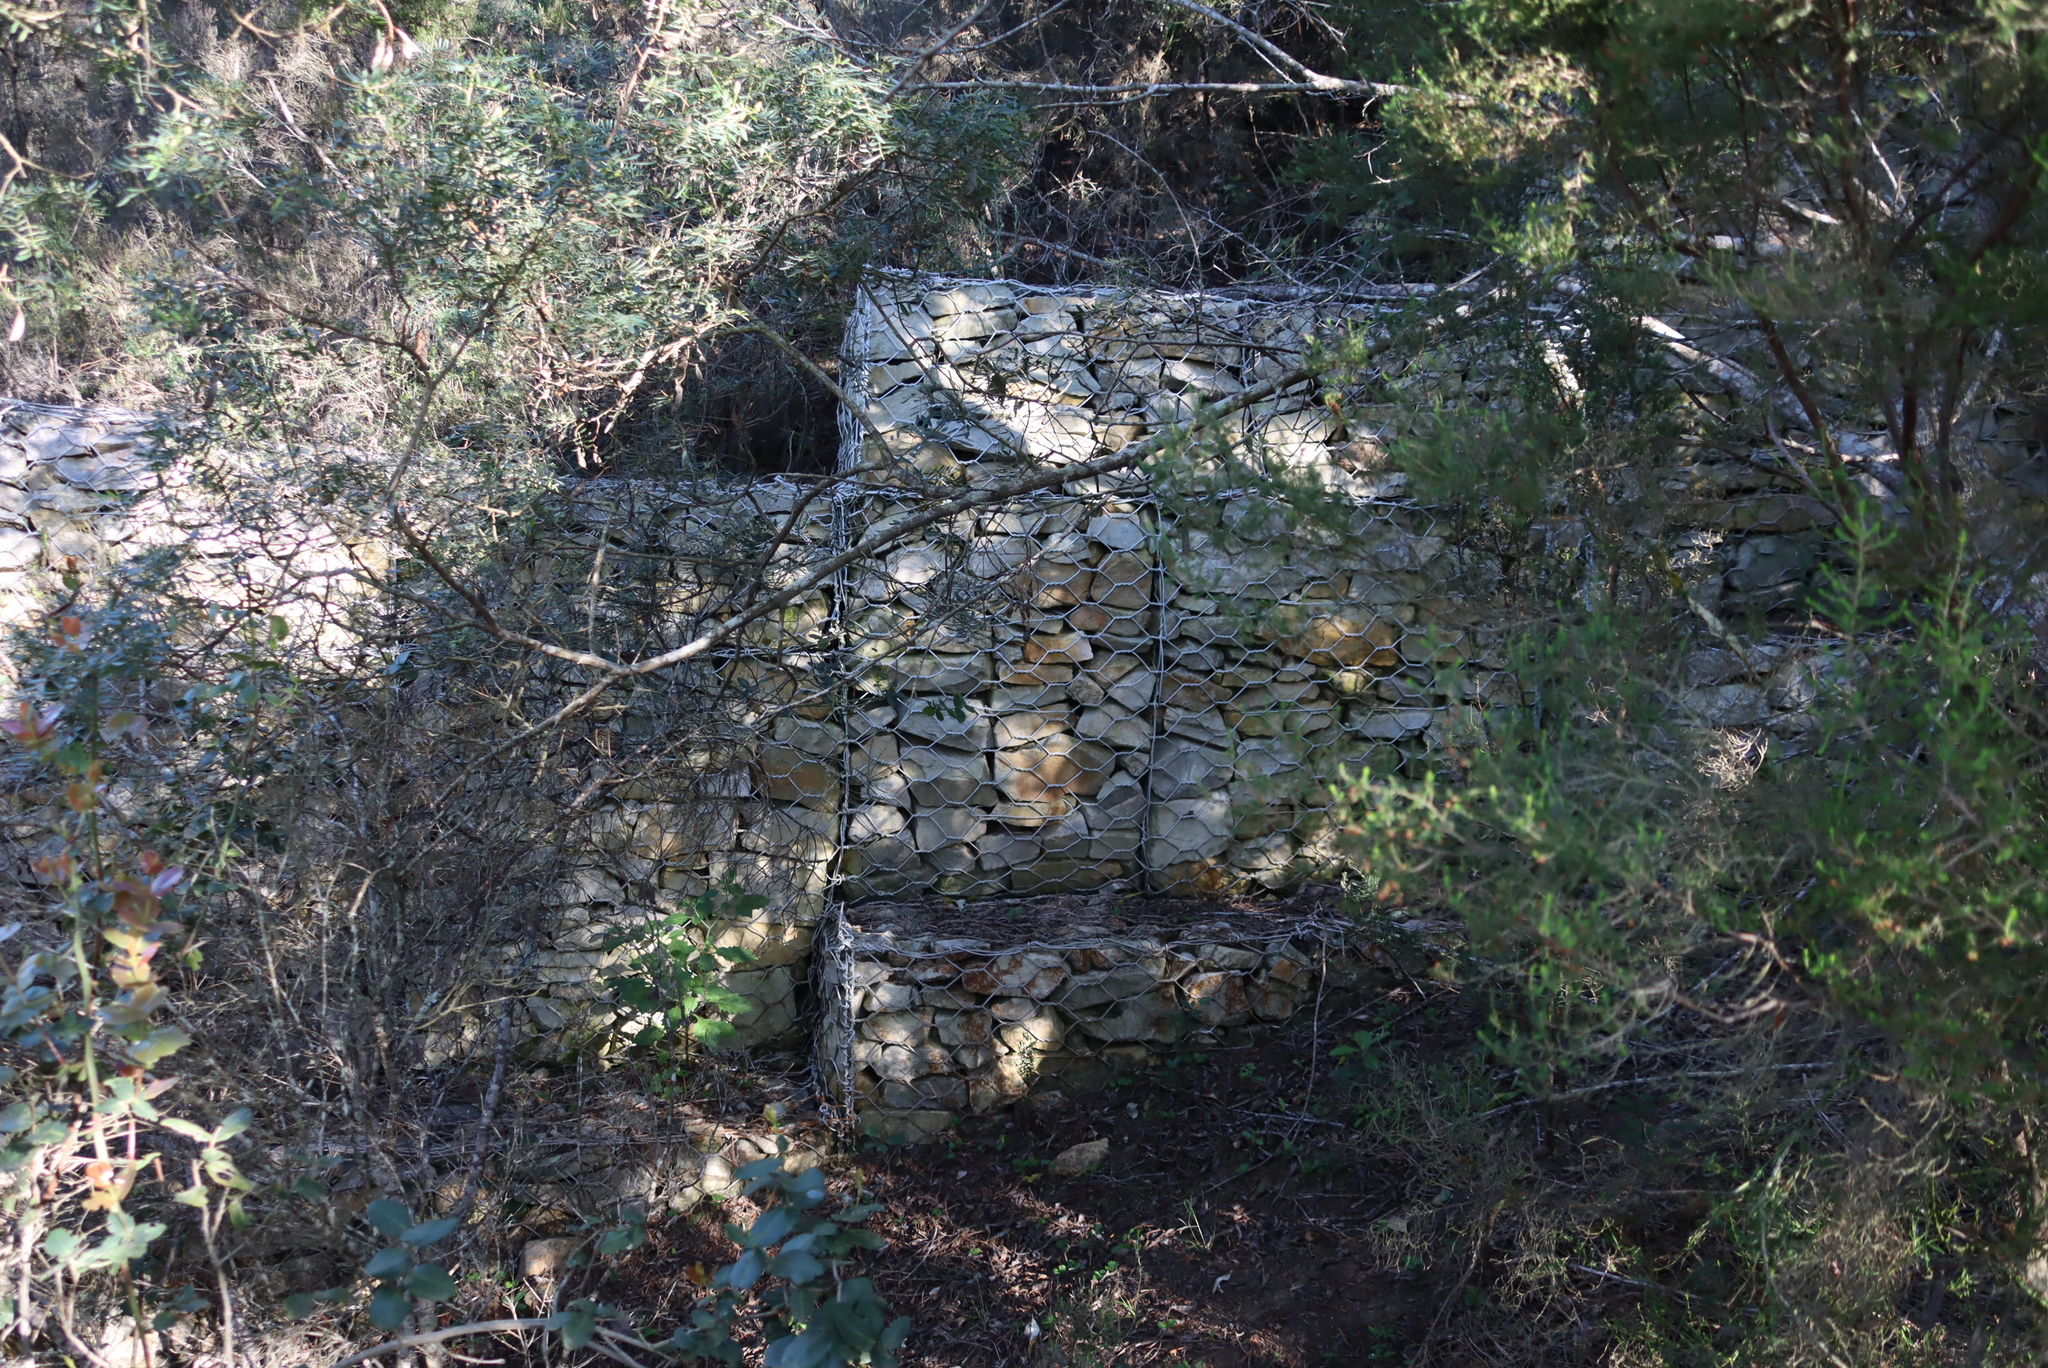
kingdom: Plantae
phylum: Tracheophyta
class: Magnoliopsida
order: Sapindales
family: Rutaceae
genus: Agathosma
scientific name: Agathosma ovata
